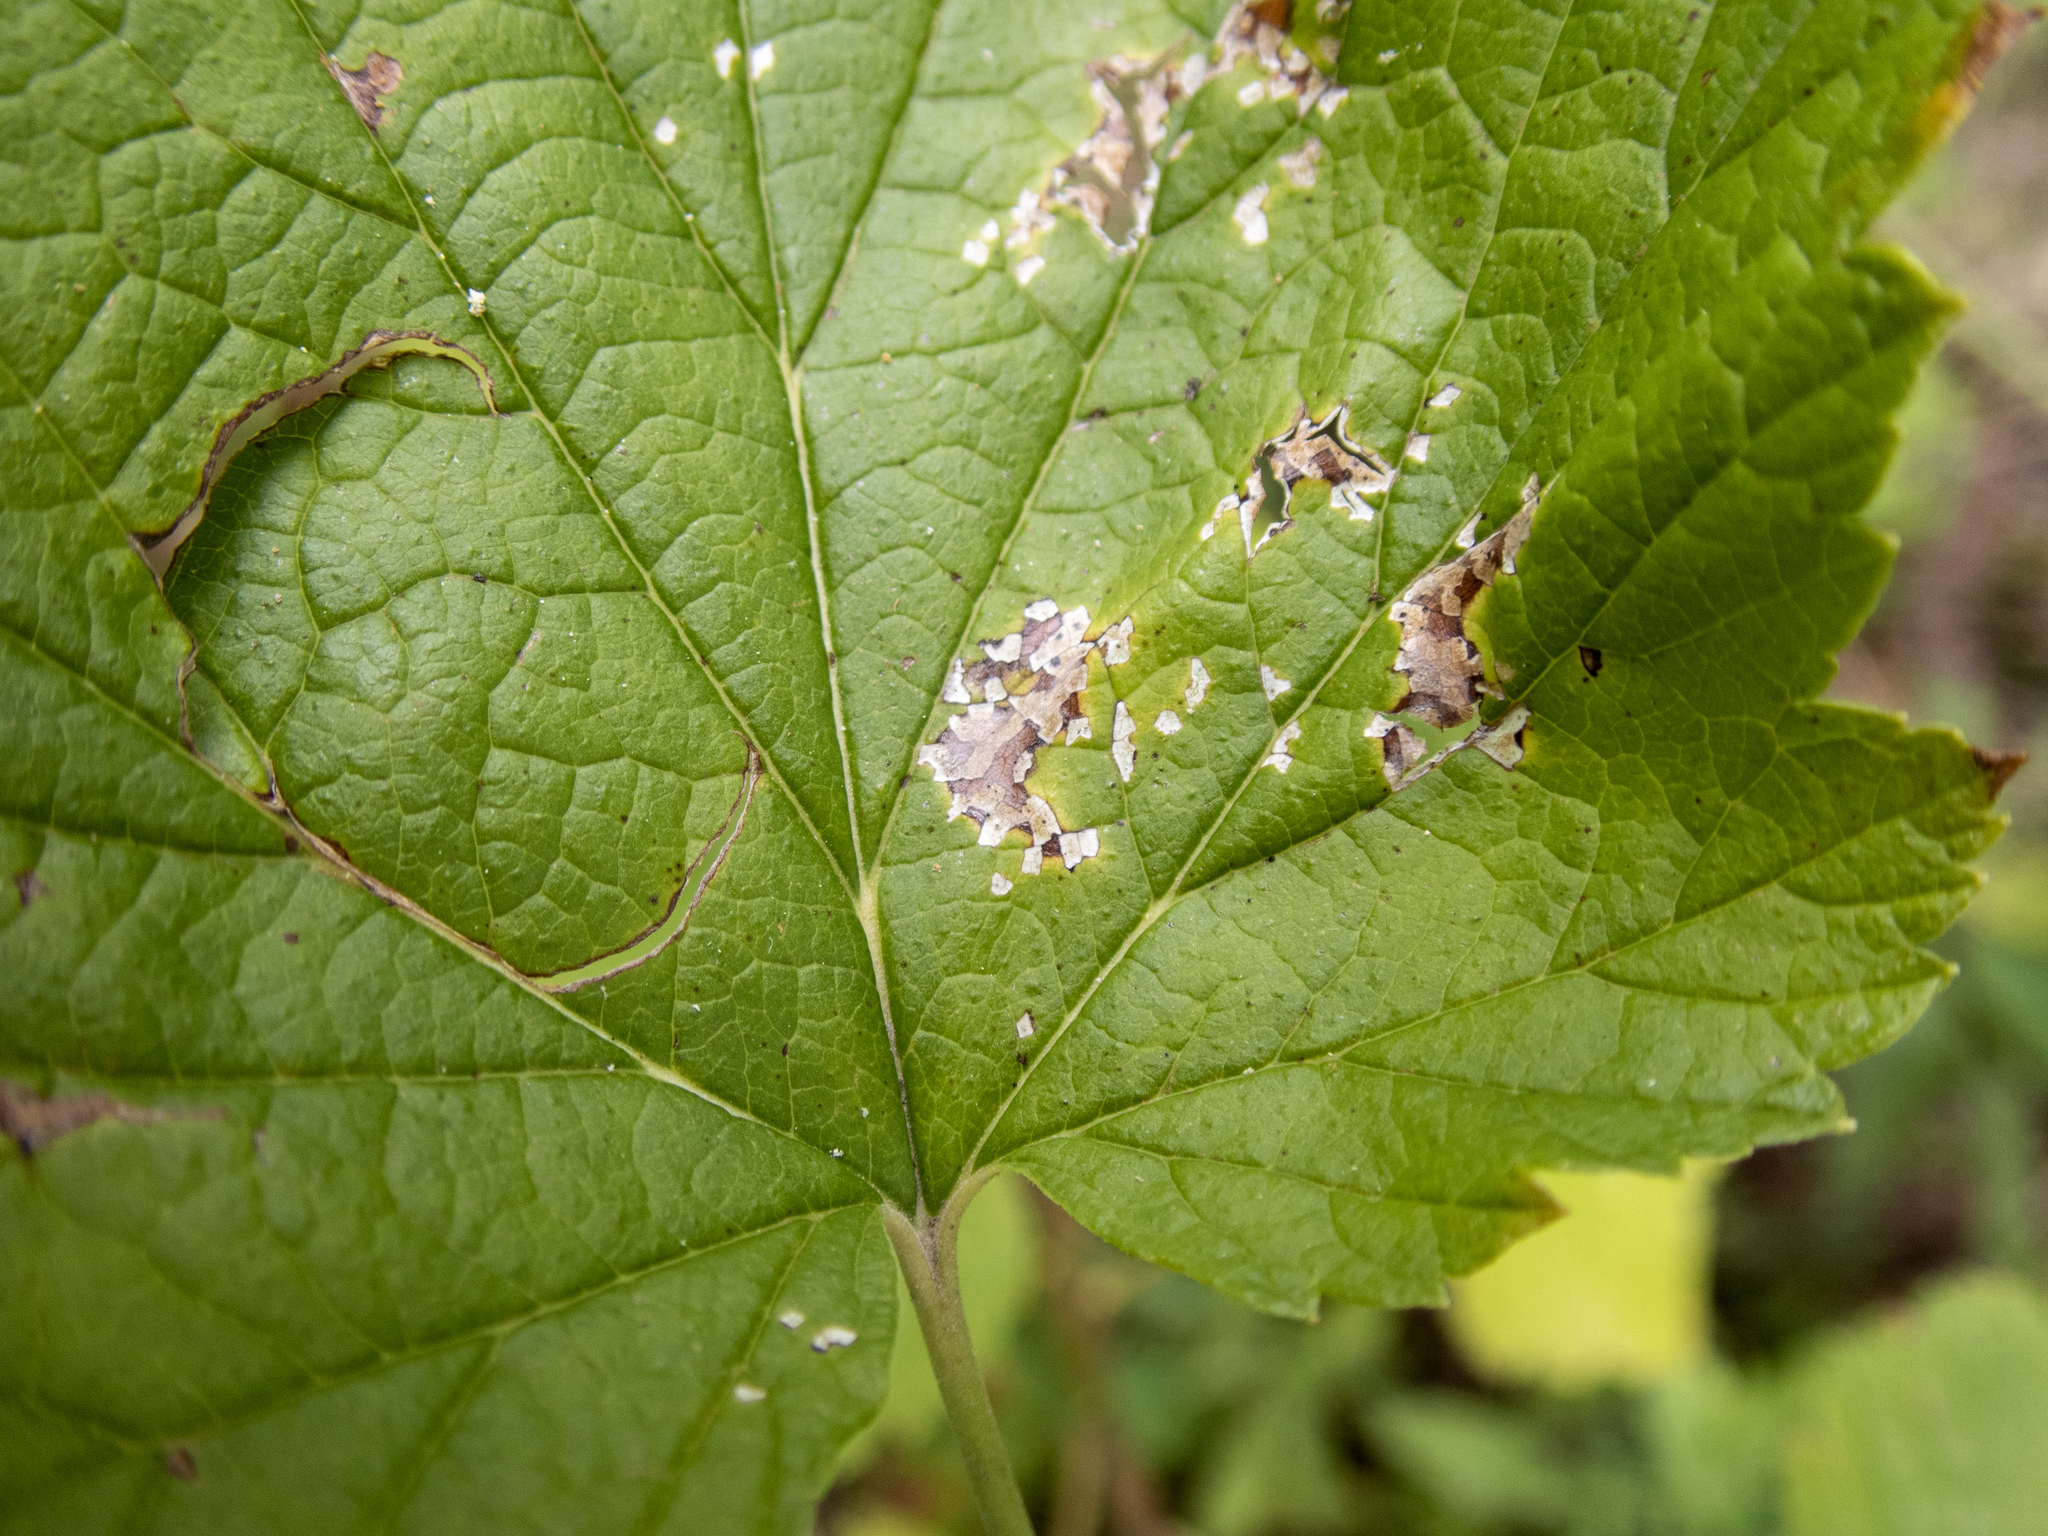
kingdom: Animalia
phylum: Arthropoda
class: Insecta
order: Hemiptera
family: Miridae
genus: Poecilocapsus
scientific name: Poecilocapsus lineatus
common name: Four-lined plant bug
